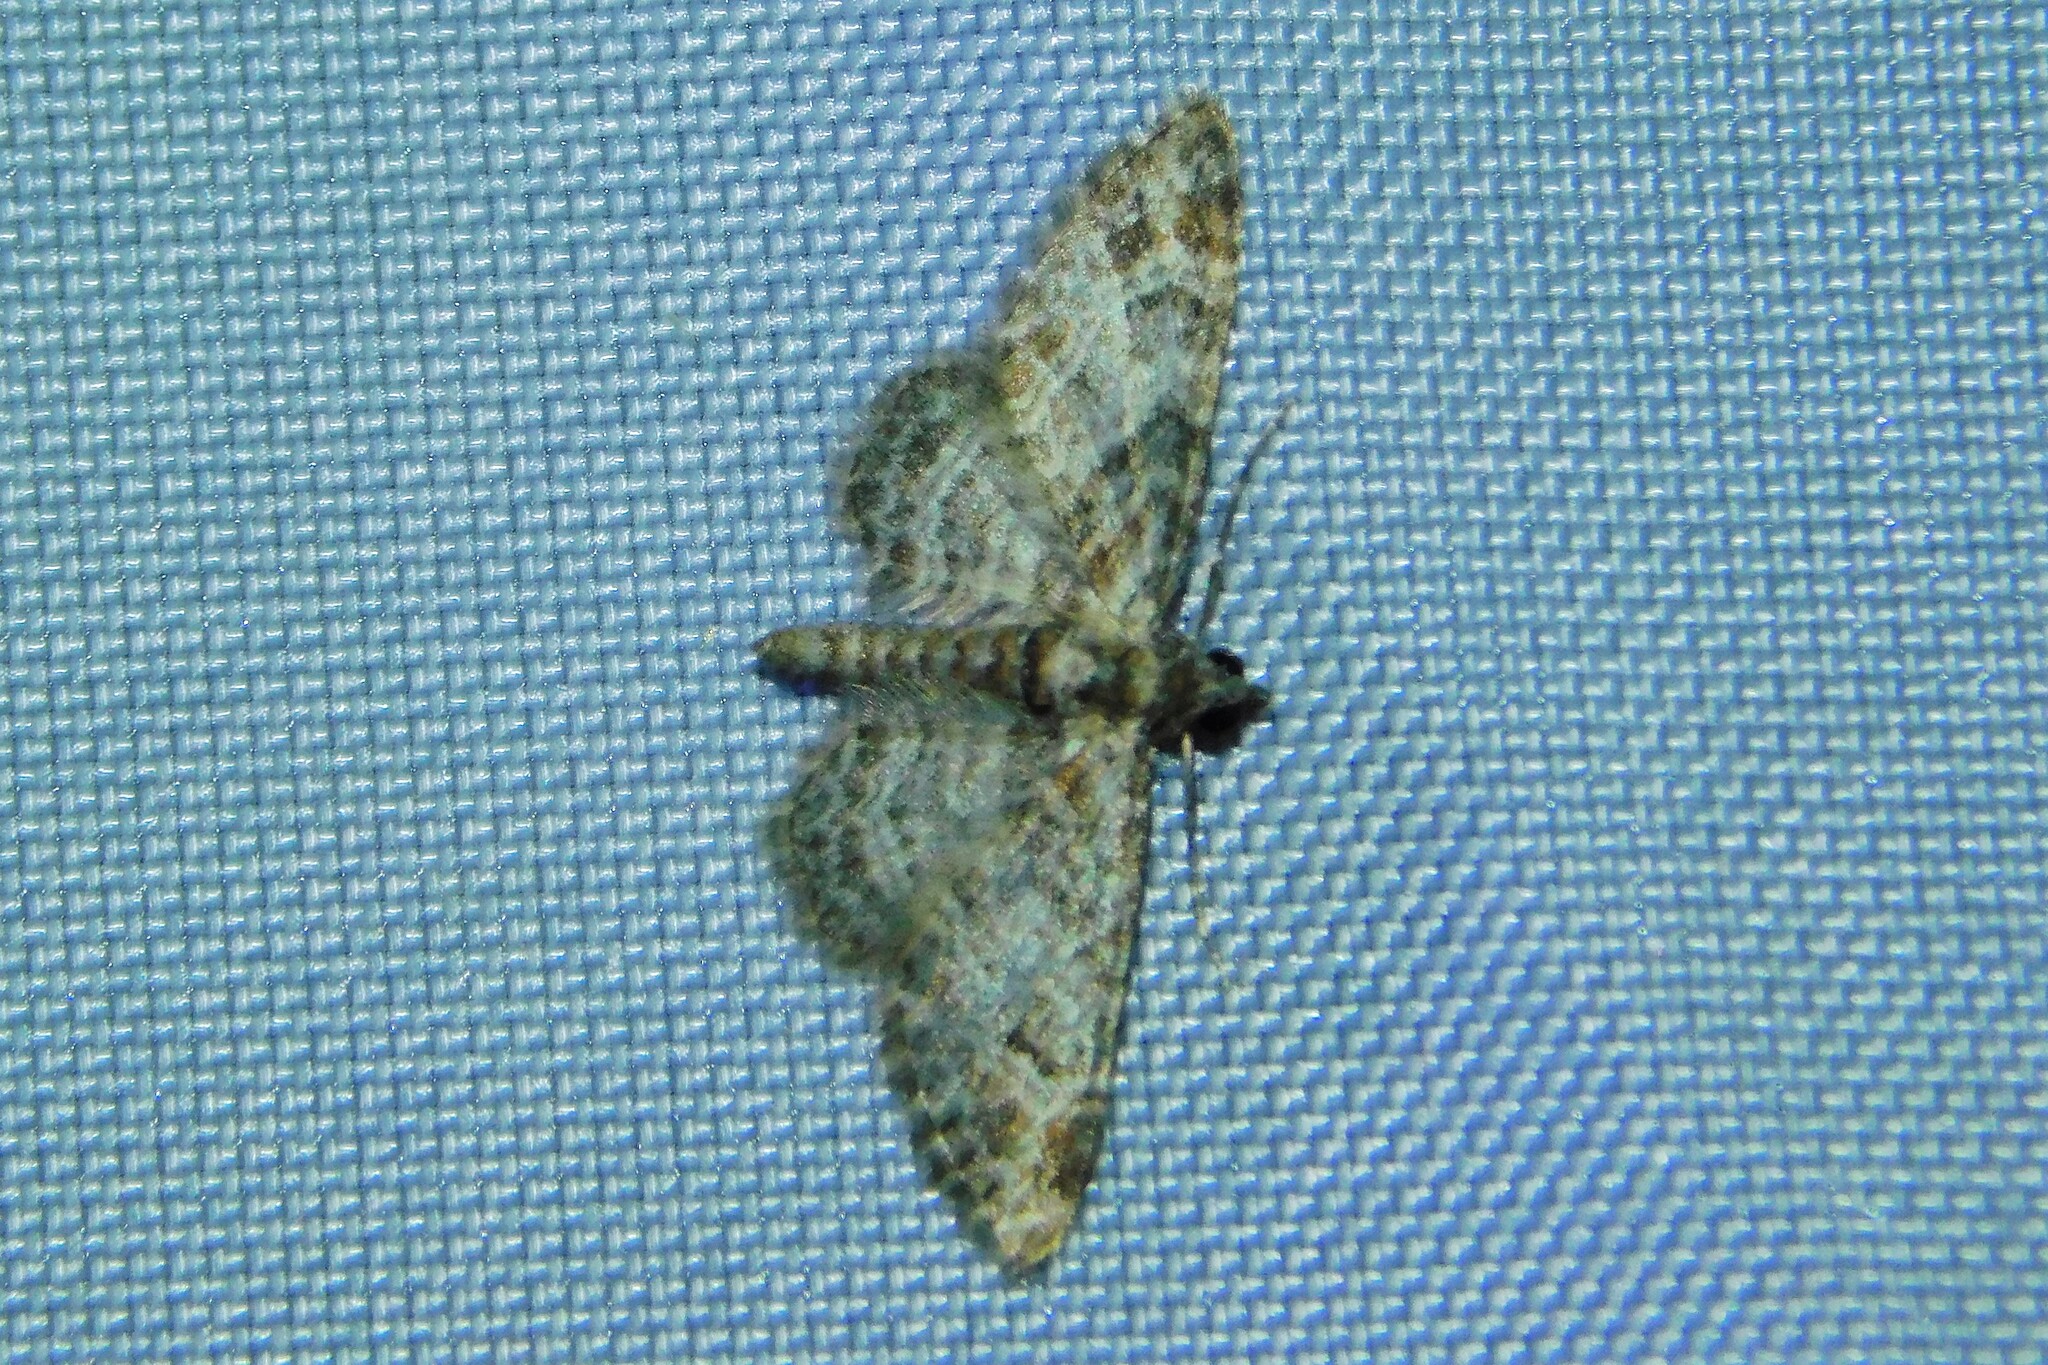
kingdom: Animalia
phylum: Arthropoda
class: Insecta
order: Lepidoptera
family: Geometridae
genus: Gymnoscelis
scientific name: Gymnoscelis rufifasciata
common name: Double-striped pug
